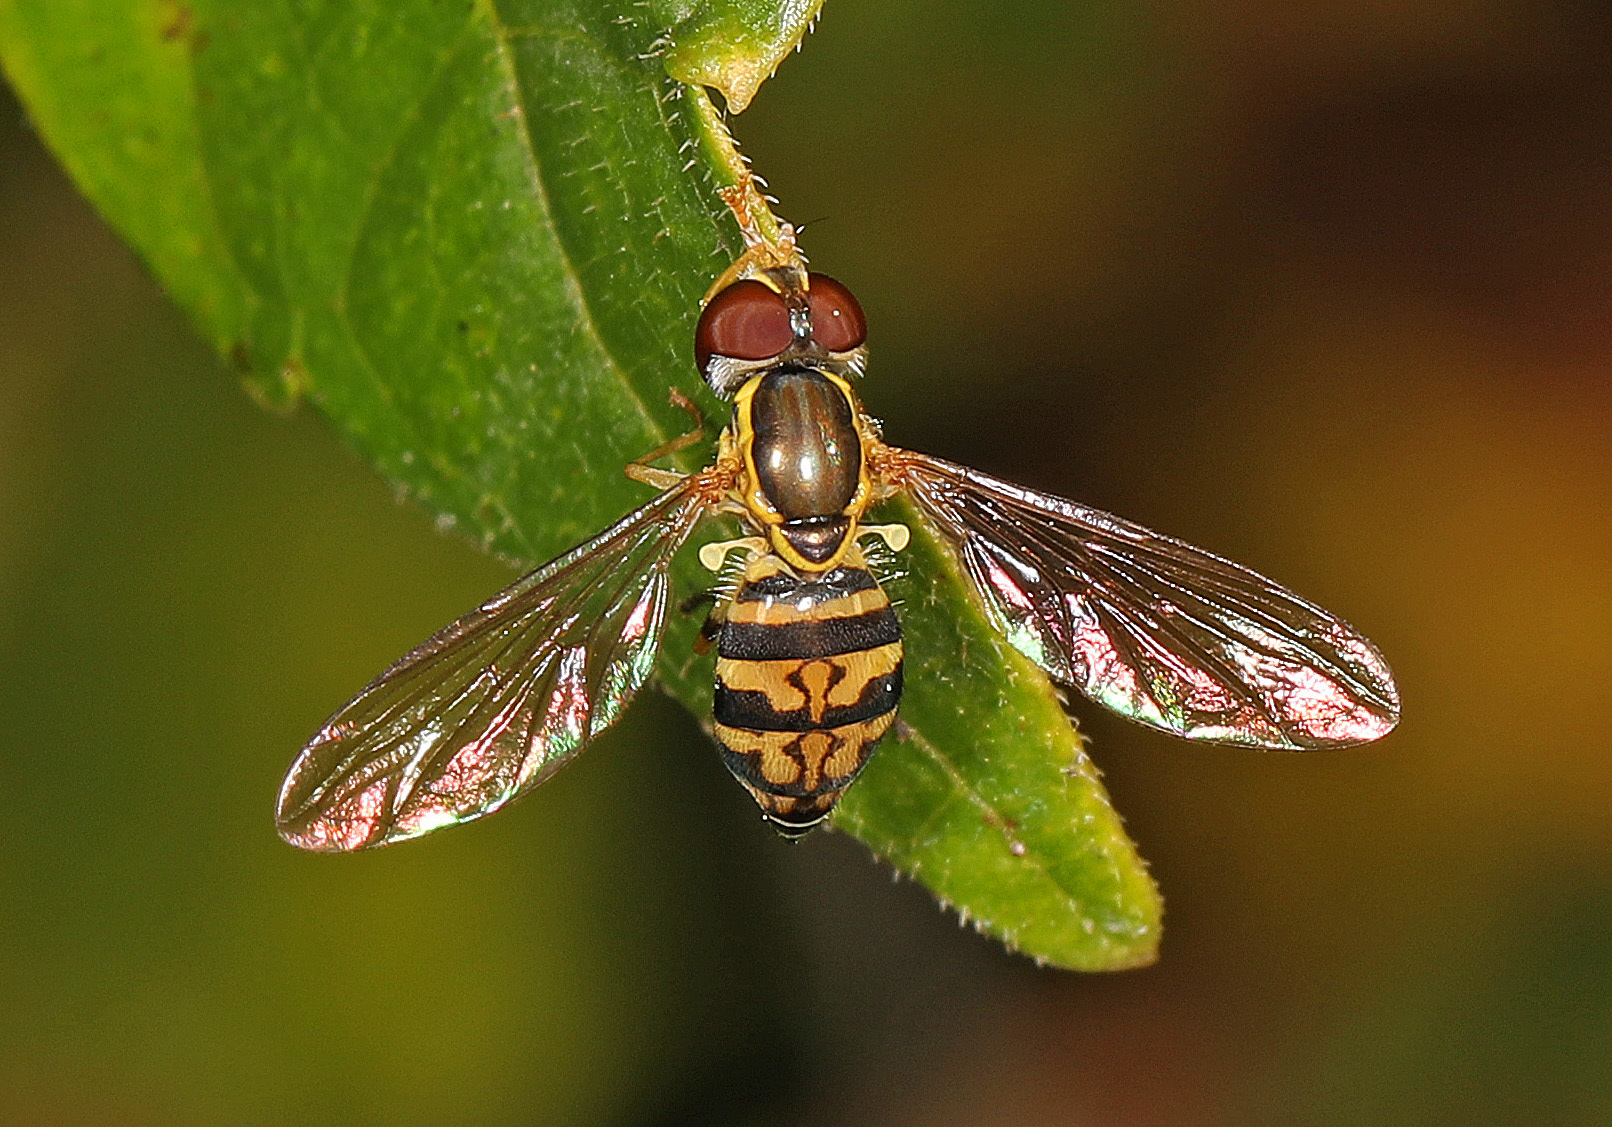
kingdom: Animalia
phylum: Arthropoda
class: Insecta
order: Diptera
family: Syrphidae
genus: Toxomerus
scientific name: Toxomerus geminatus
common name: Eastern calligrapher
